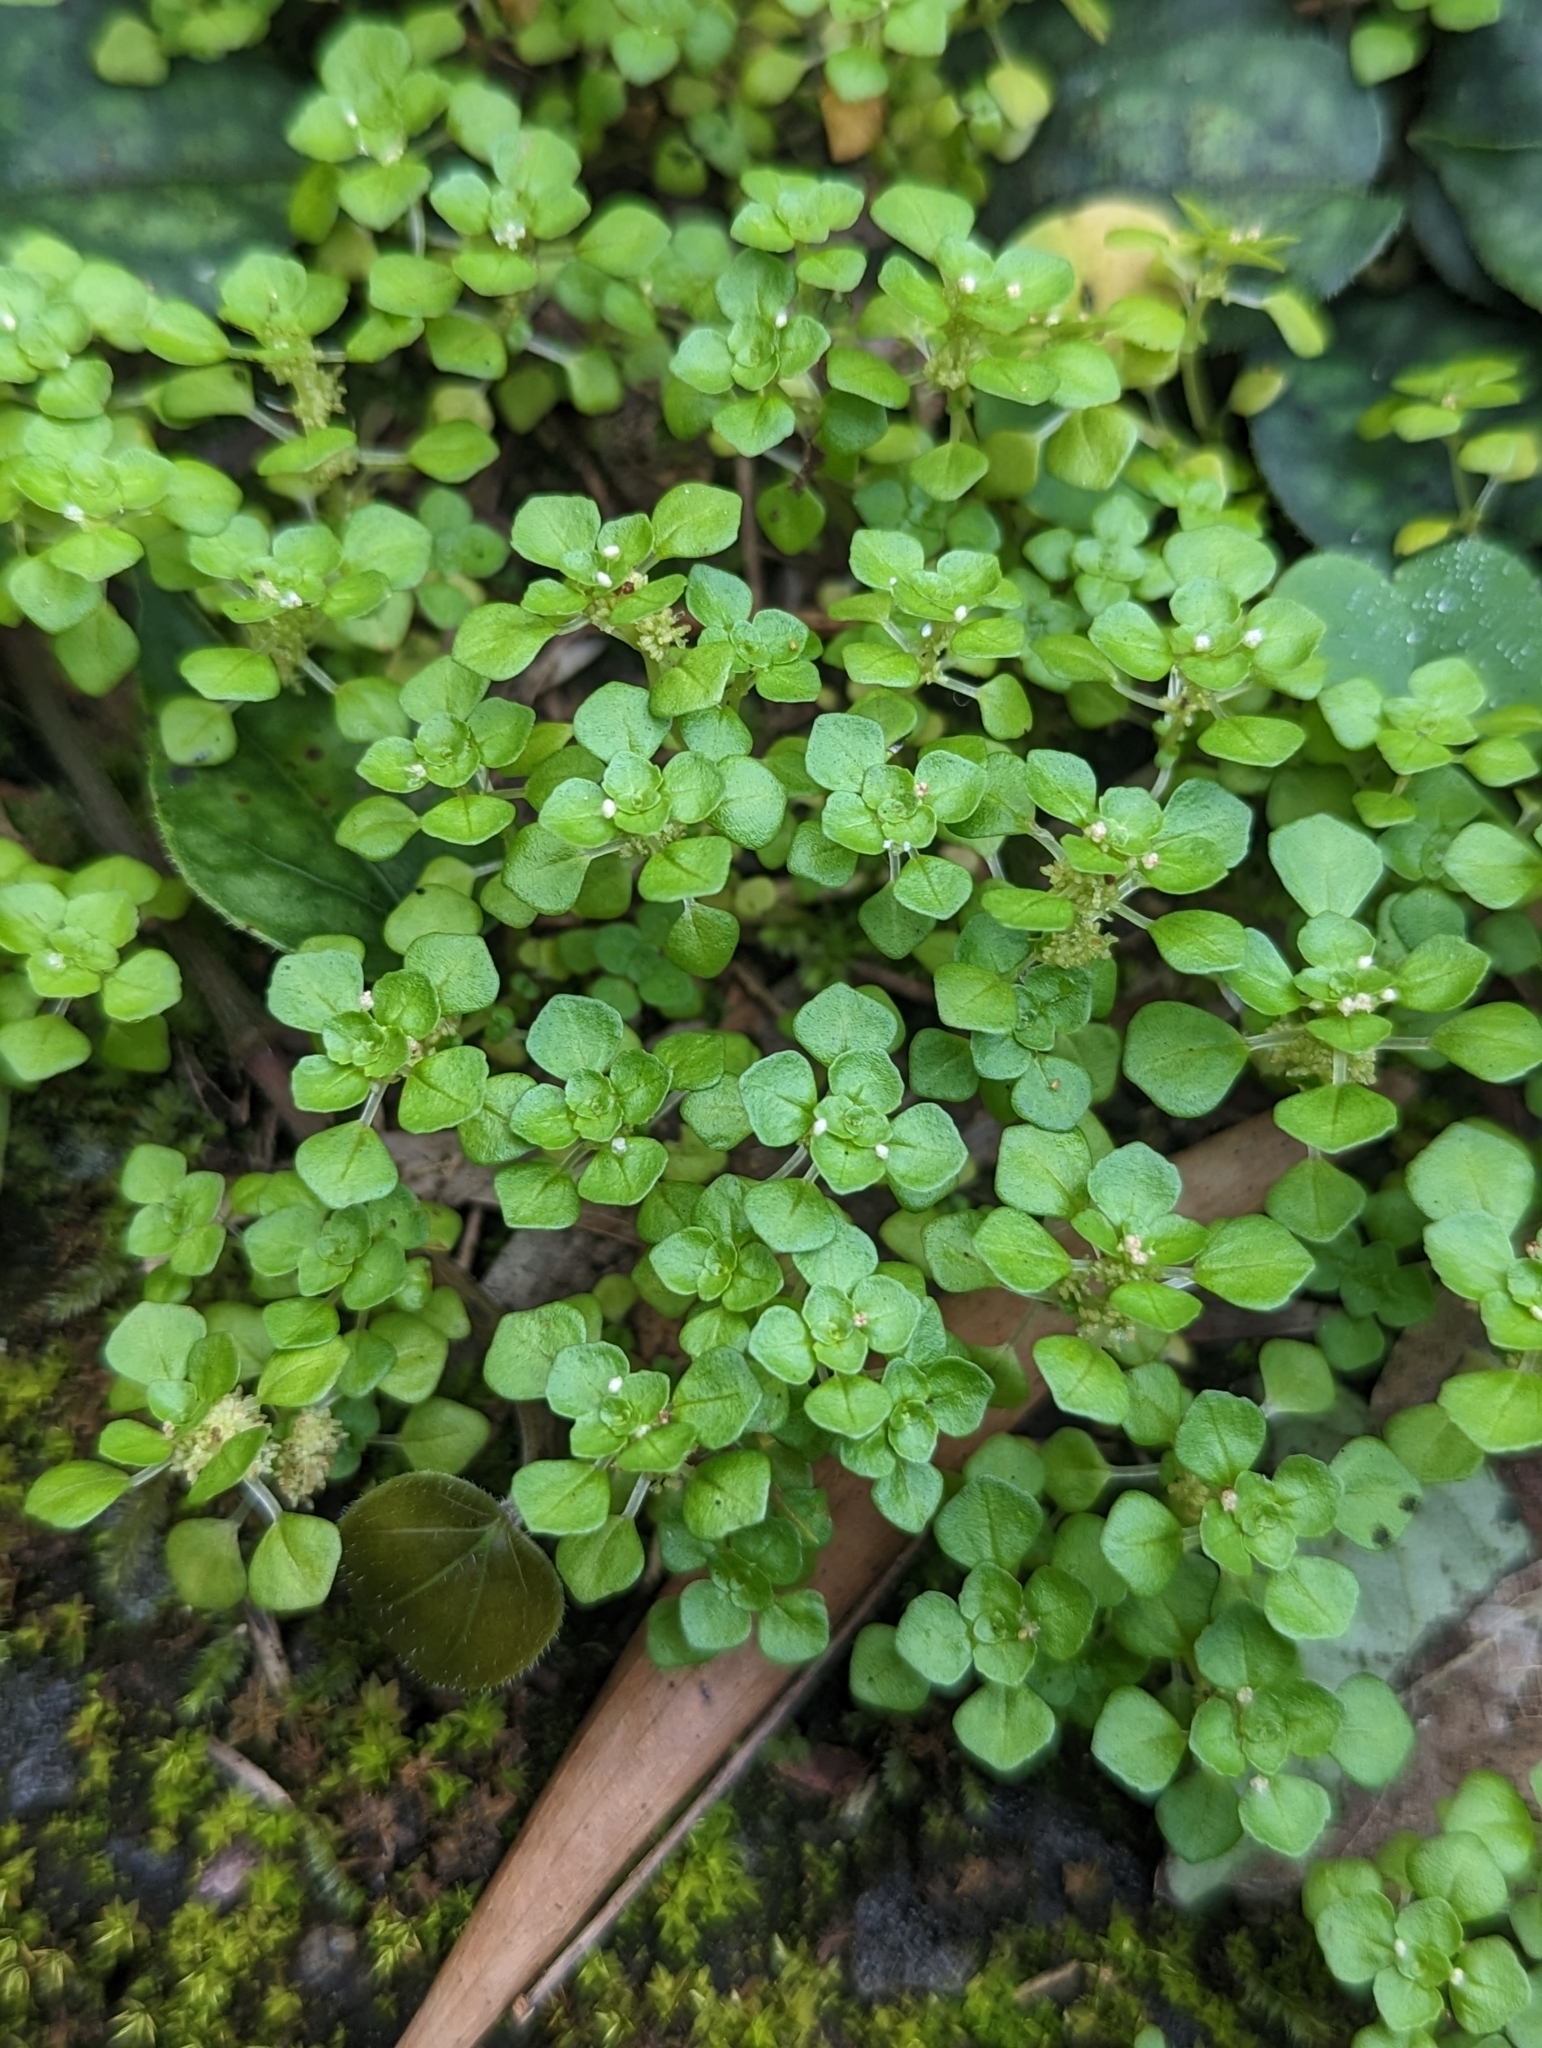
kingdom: Plantae
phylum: Tracheophyta
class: Magnoliopsida
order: Rosales
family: Urticaceae
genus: Pilea
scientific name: Pilea peploides
